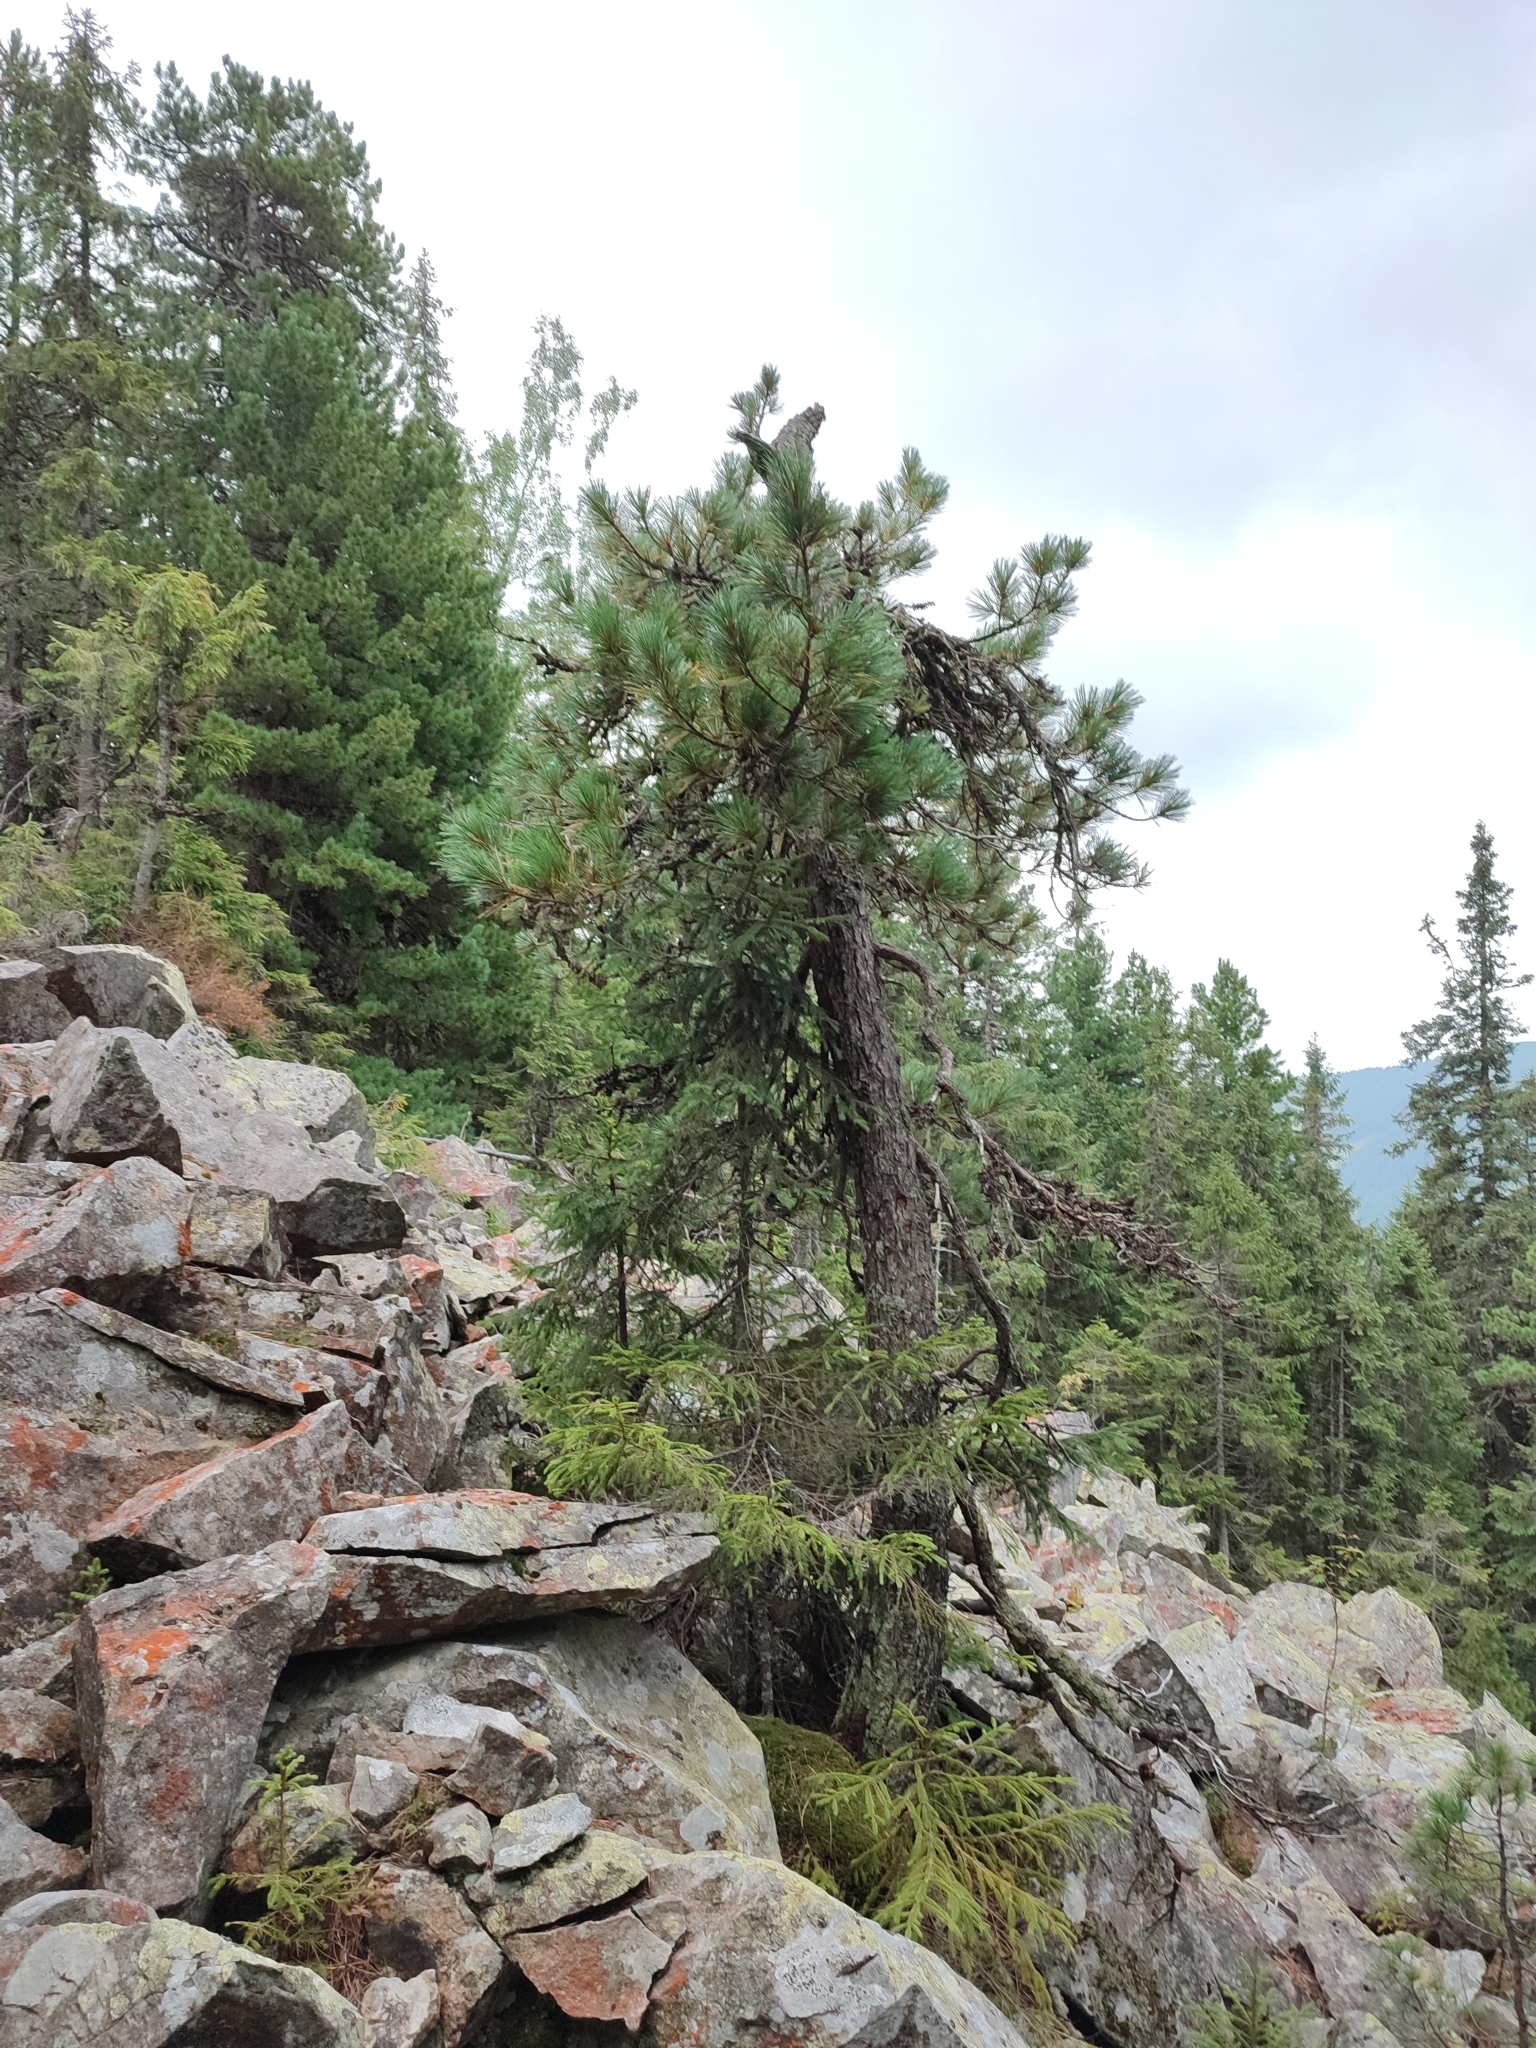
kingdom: Plantae
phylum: Tracheophyta
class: Pinopsida
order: Pinales
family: Pinaceae
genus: Pinus
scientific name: Pinus cembra
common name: Arolla pine
